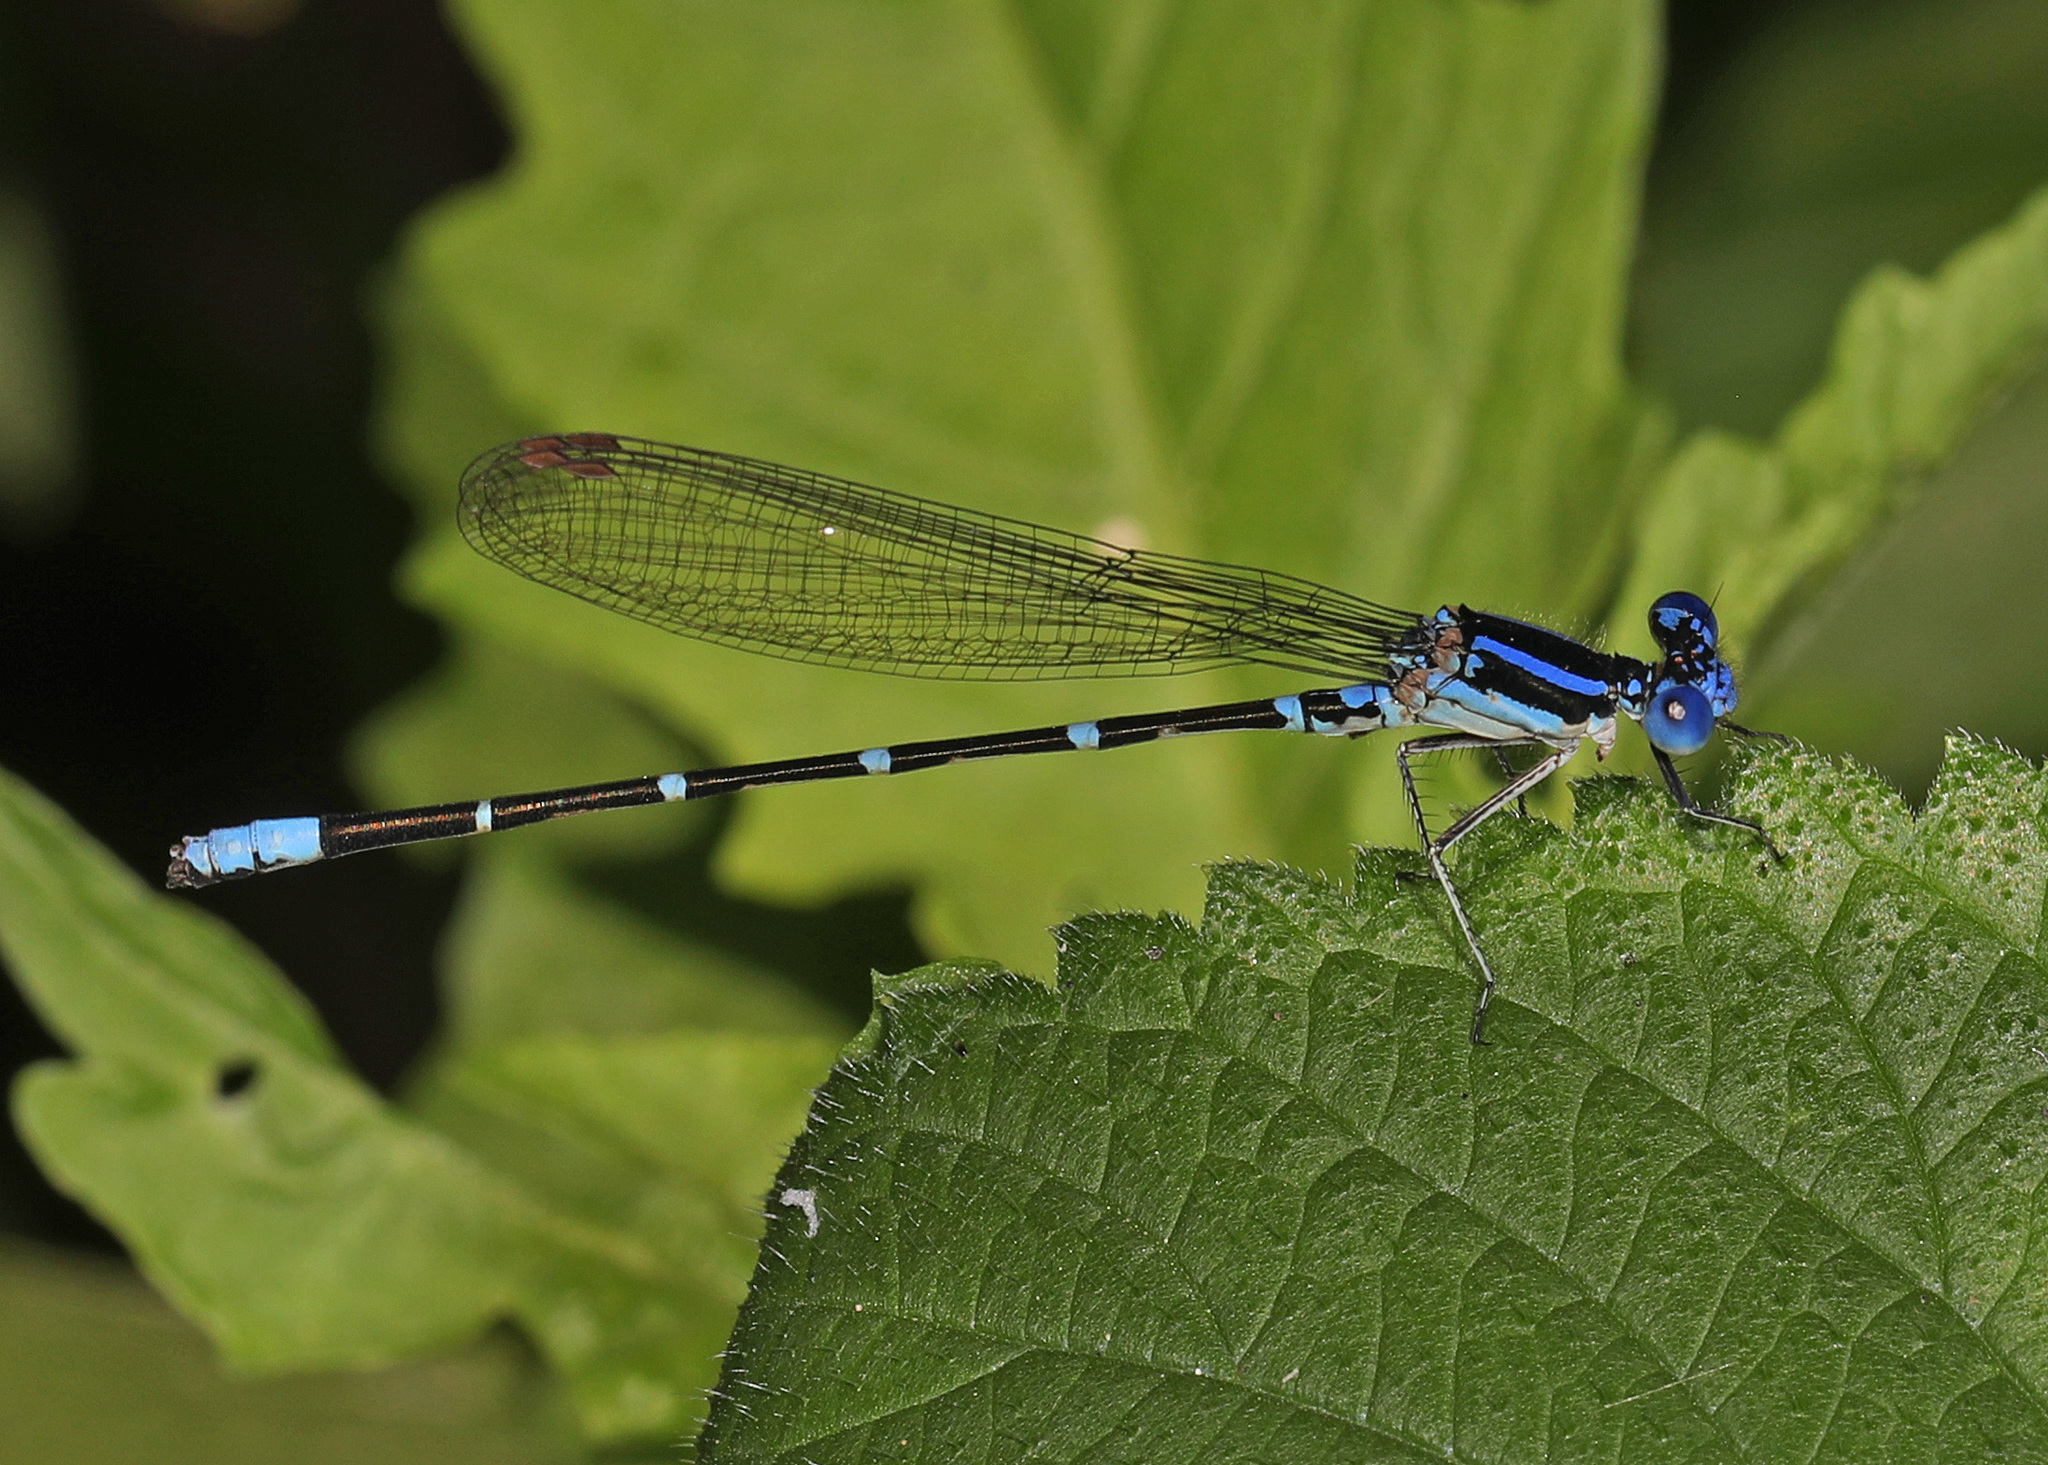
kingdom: Animalia
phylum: Arthropoda
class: Insecta
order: Odonata
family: Coenagrionidae
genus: Argia
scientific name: Argia sedula
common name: Blue-ringed dancer
